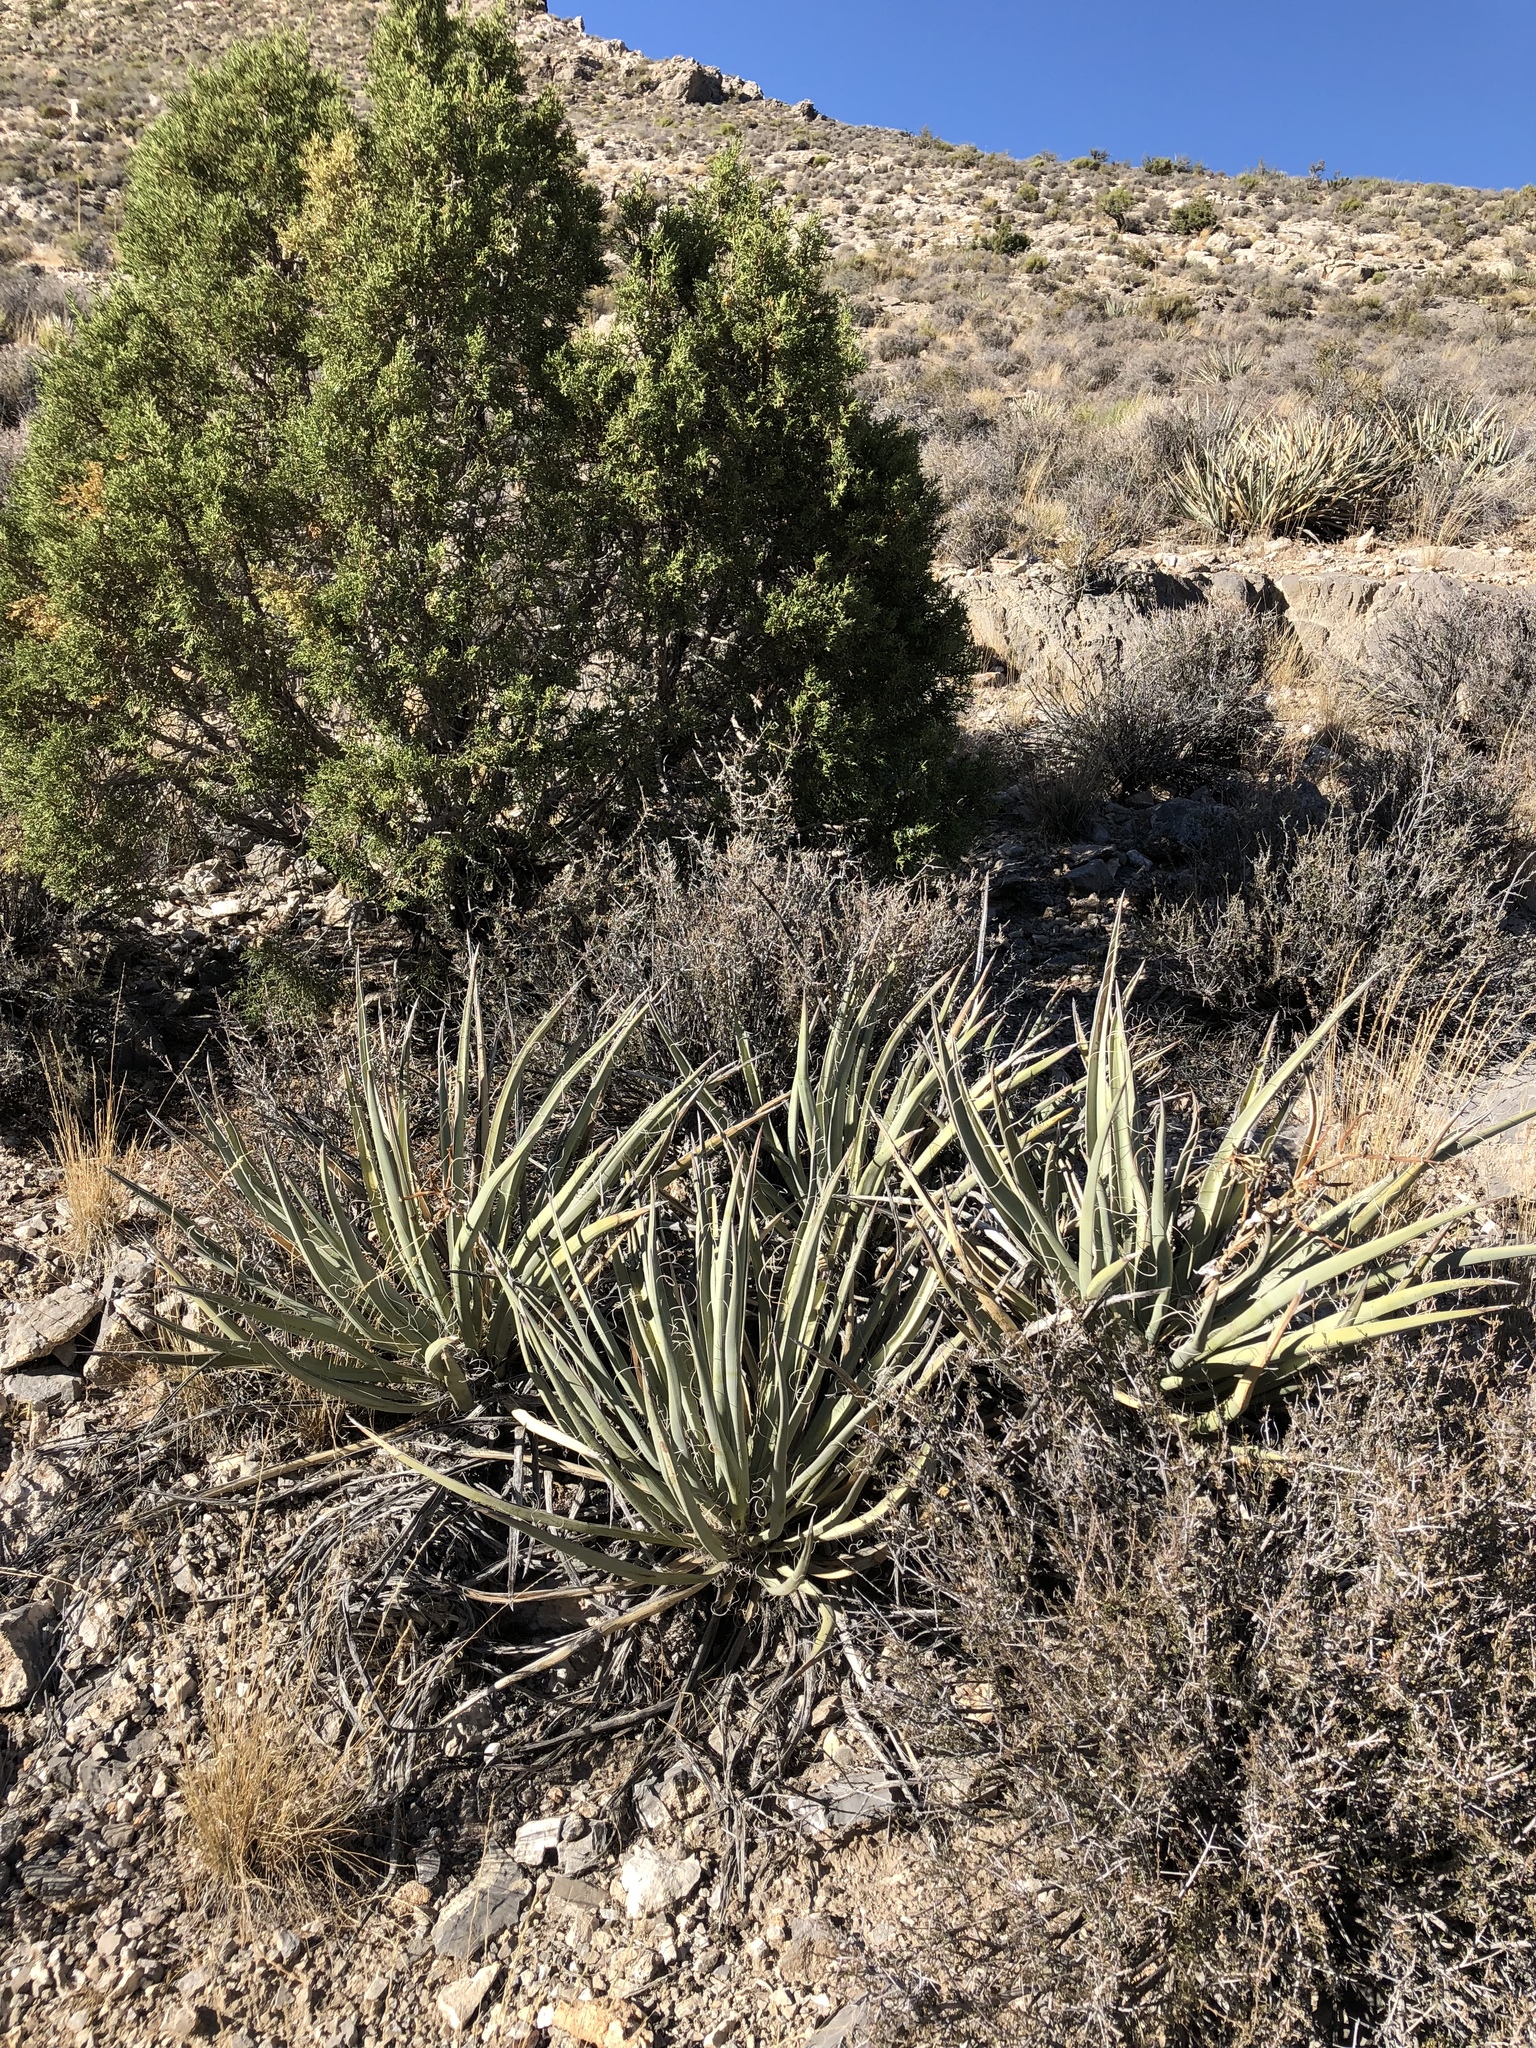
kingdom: Plantae
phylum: Tracheophyta
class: Liliopsida
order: Asparagales
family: Asparagaceae
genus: Yucca
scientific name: Yucca baccata
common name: Banana yucca
